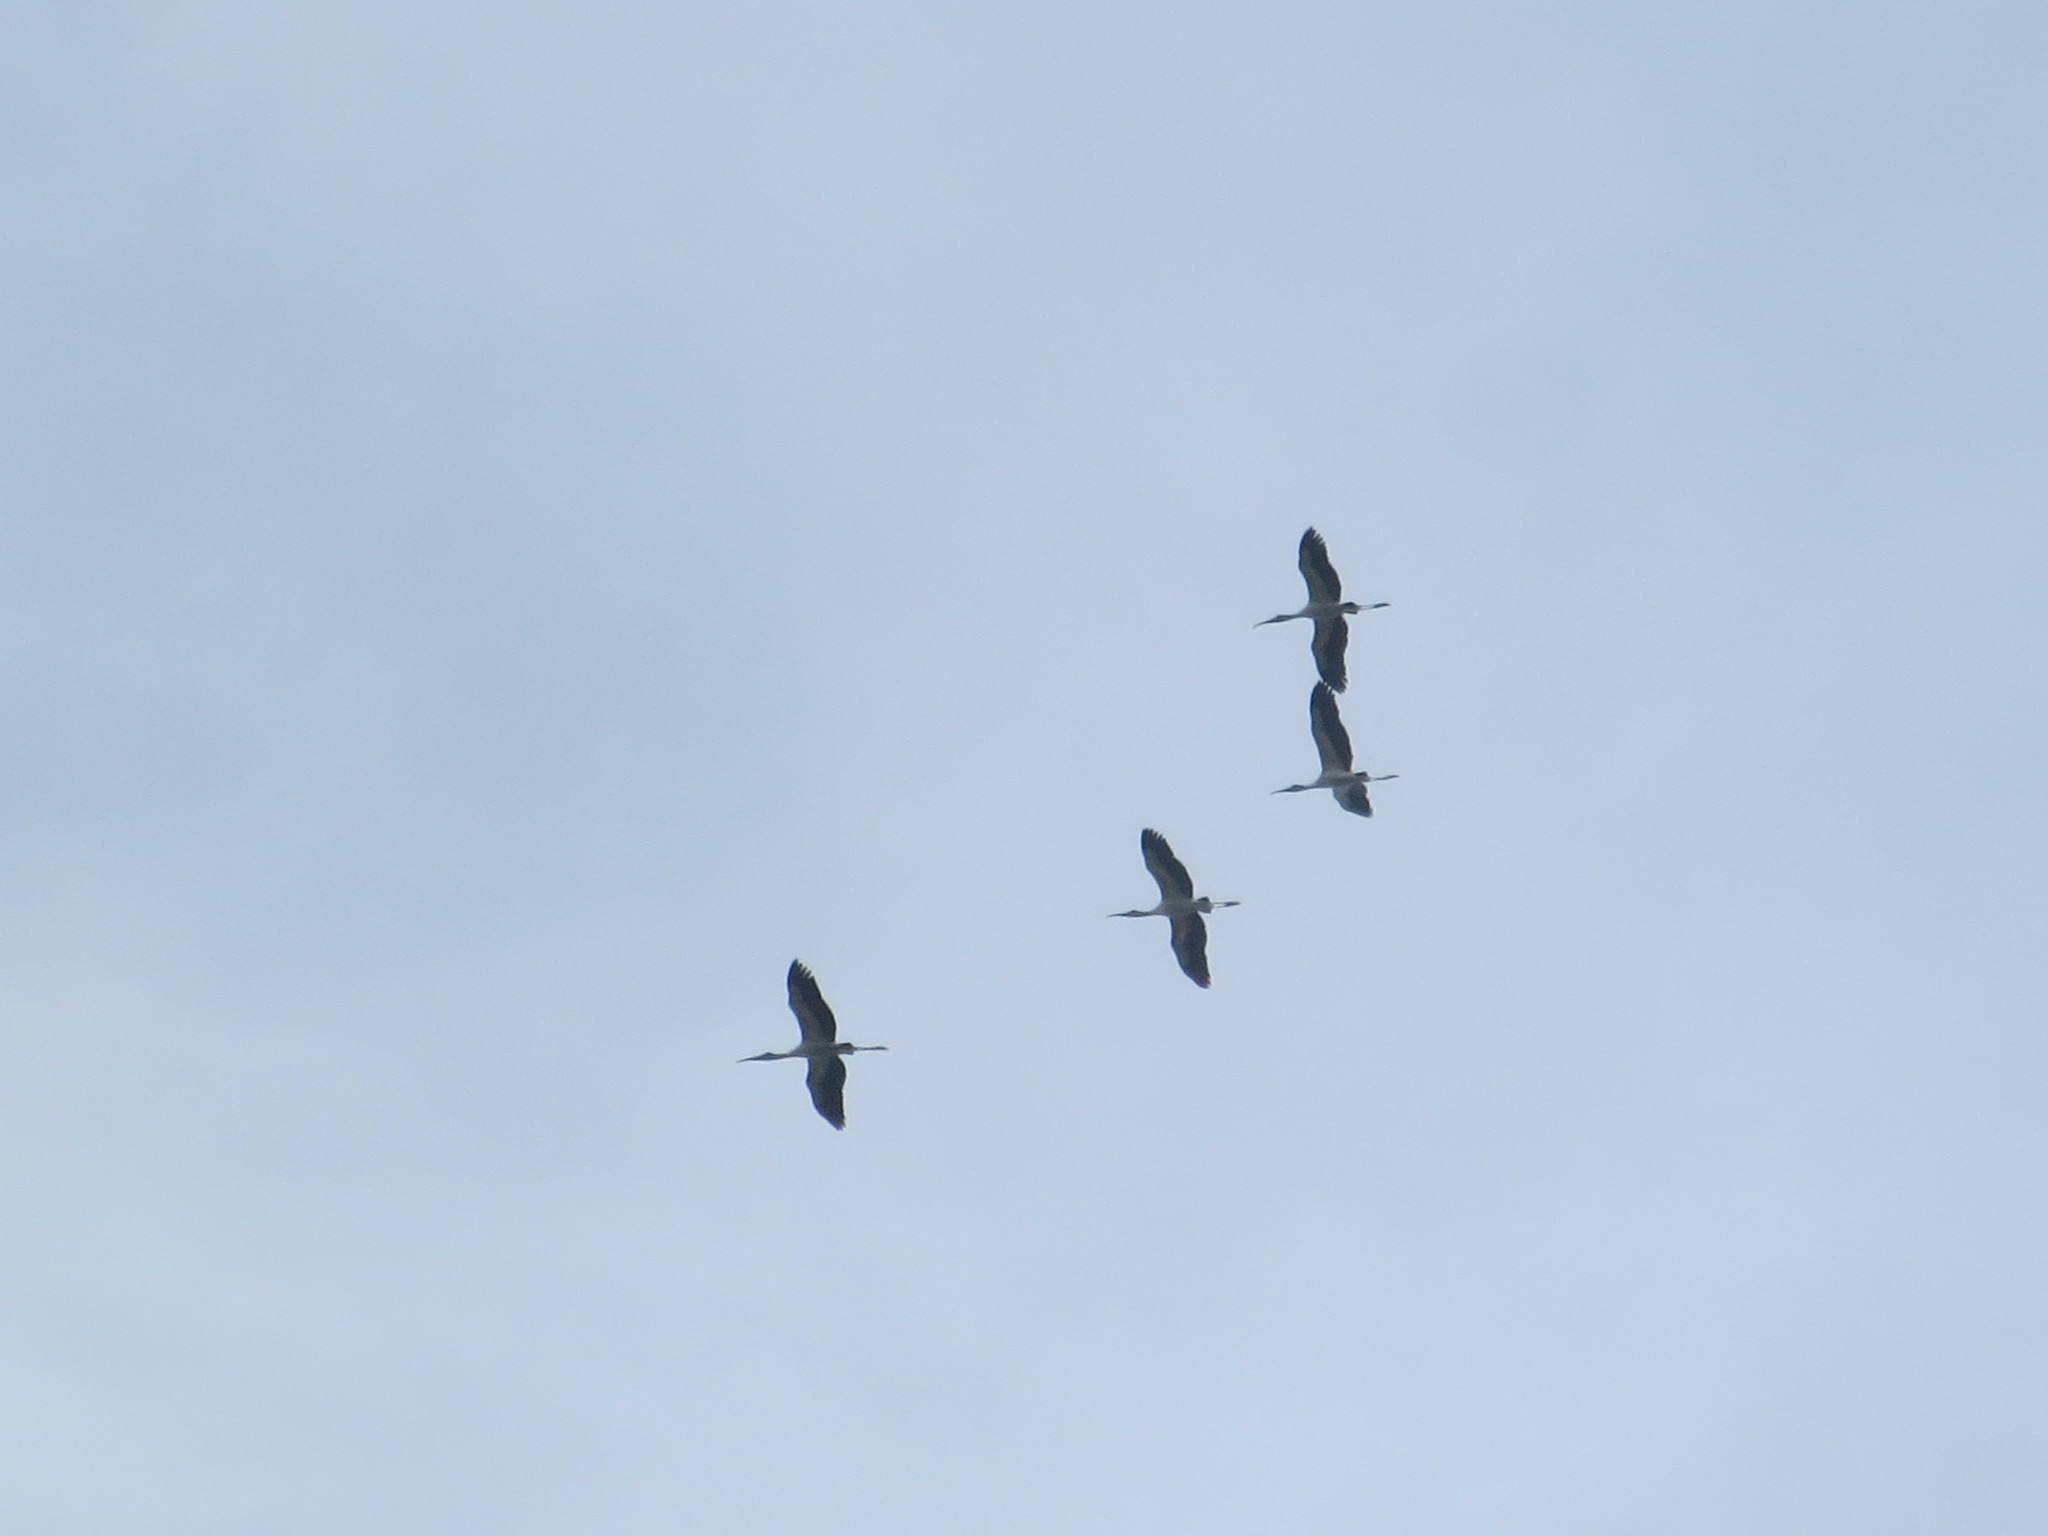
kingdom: Animalia
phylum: Chordata
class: Aves
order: Ciconiiformes
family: Ciconiidae
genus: Mycteria
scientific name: Mycteria americana
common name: Wood stork
